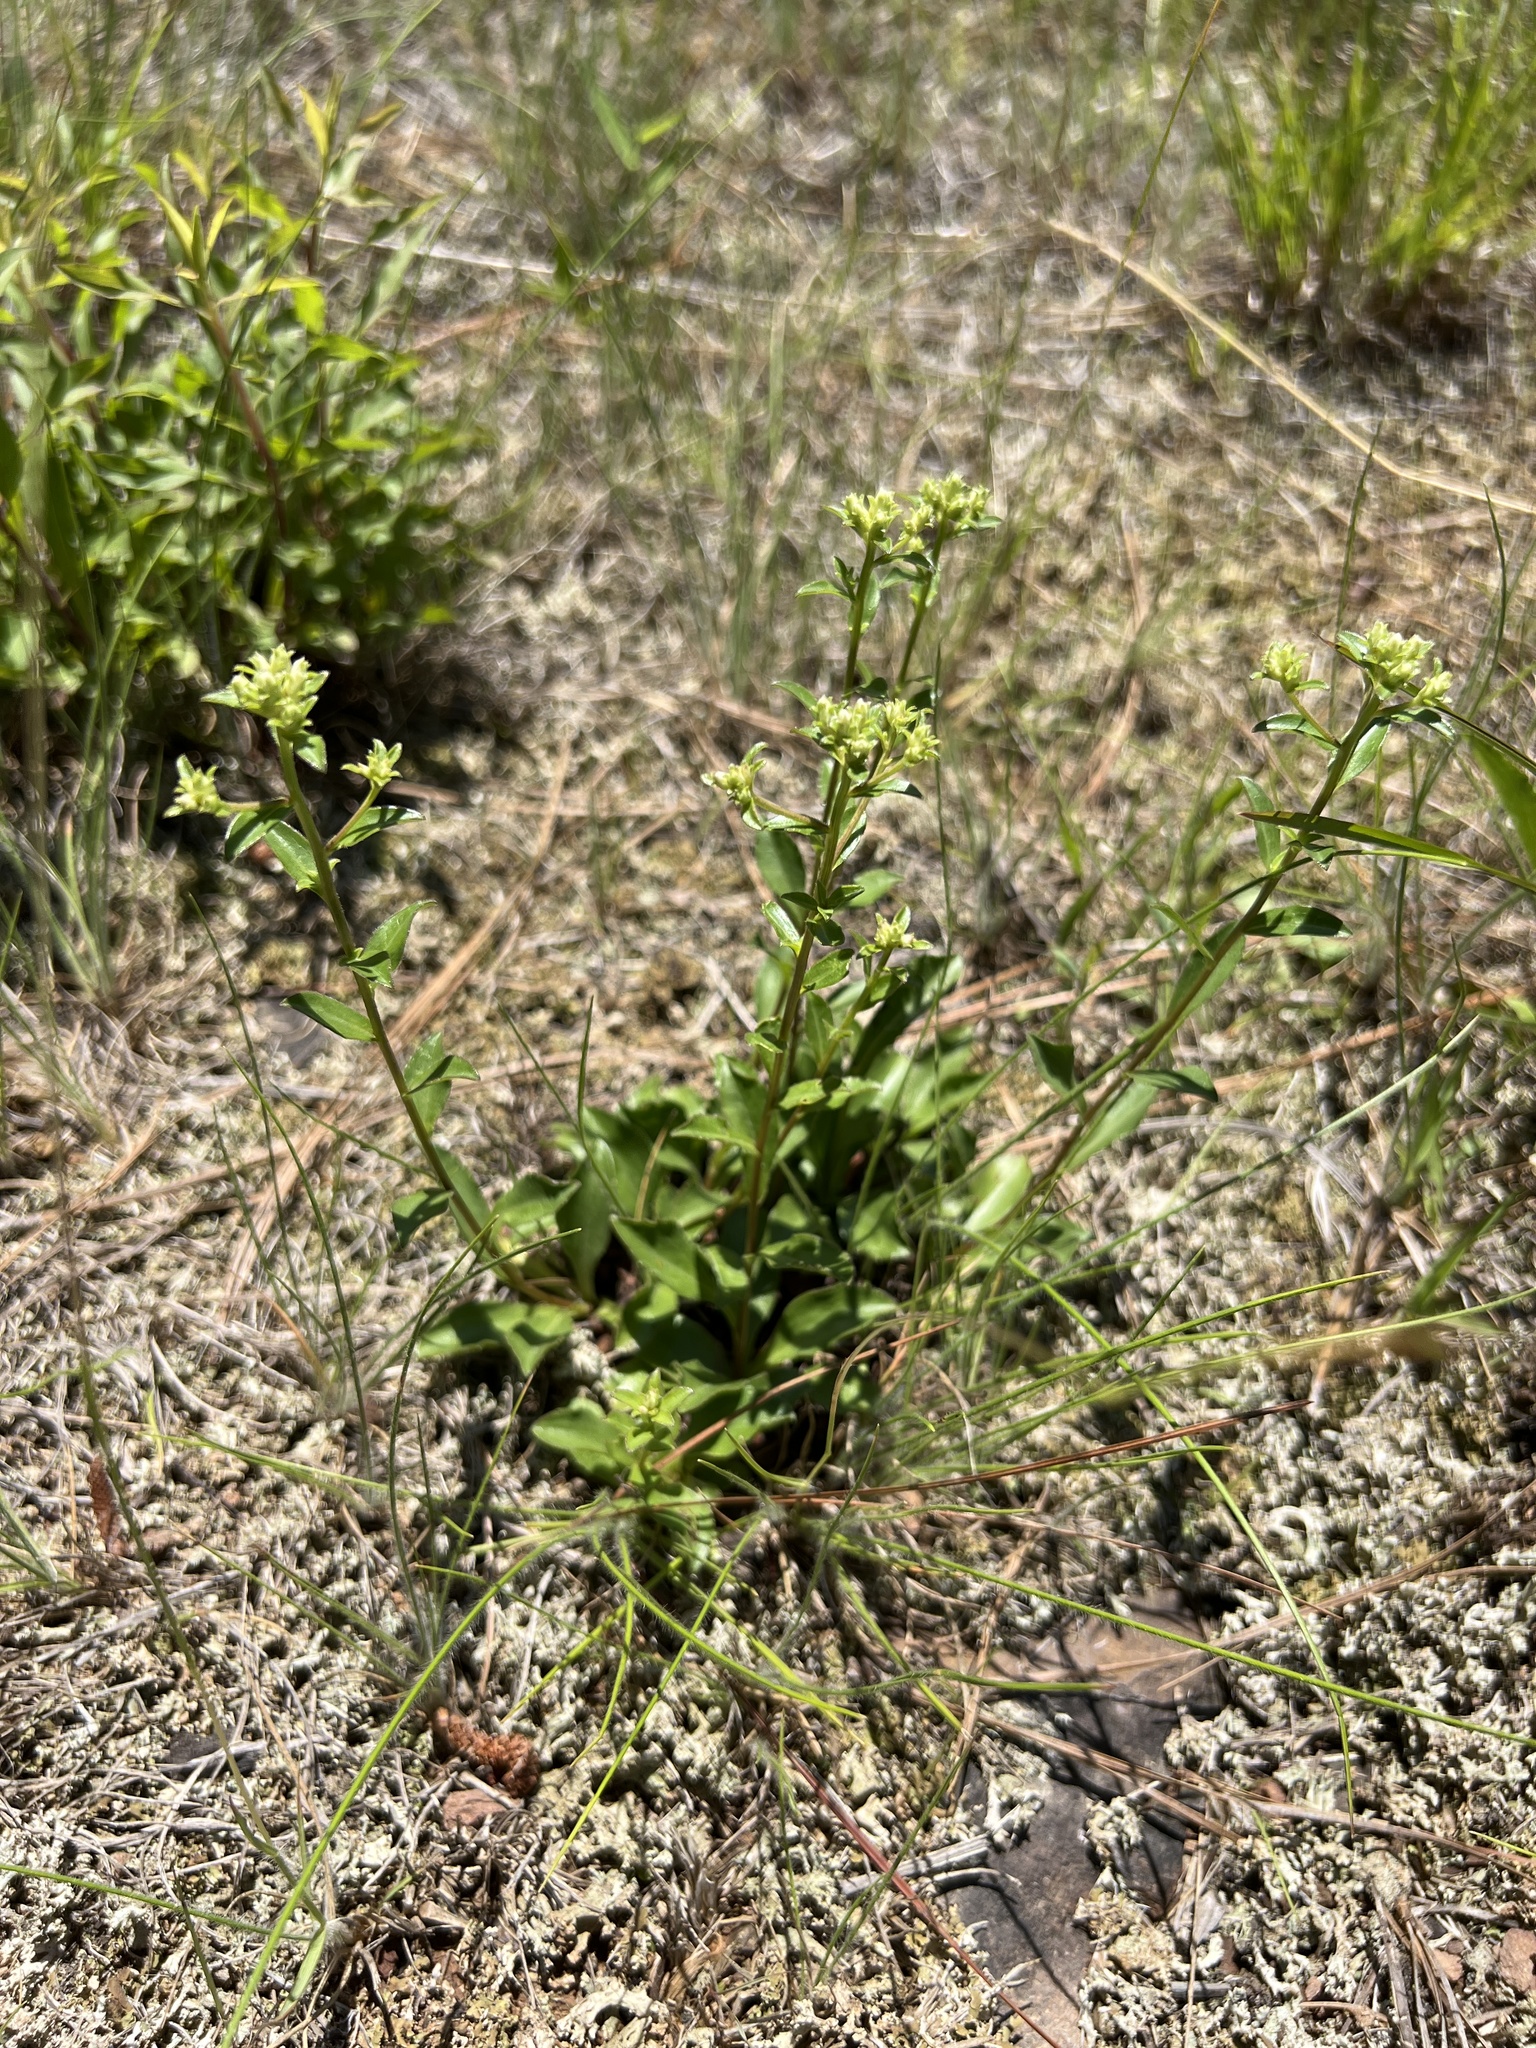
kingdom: Plantae
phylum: Tracheophyta
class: Magnoliopsida
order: Asterales
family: Asteraceae
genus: Sericocarpus
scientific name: Sericocarpus asteroides
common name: Toothed white-top aster
